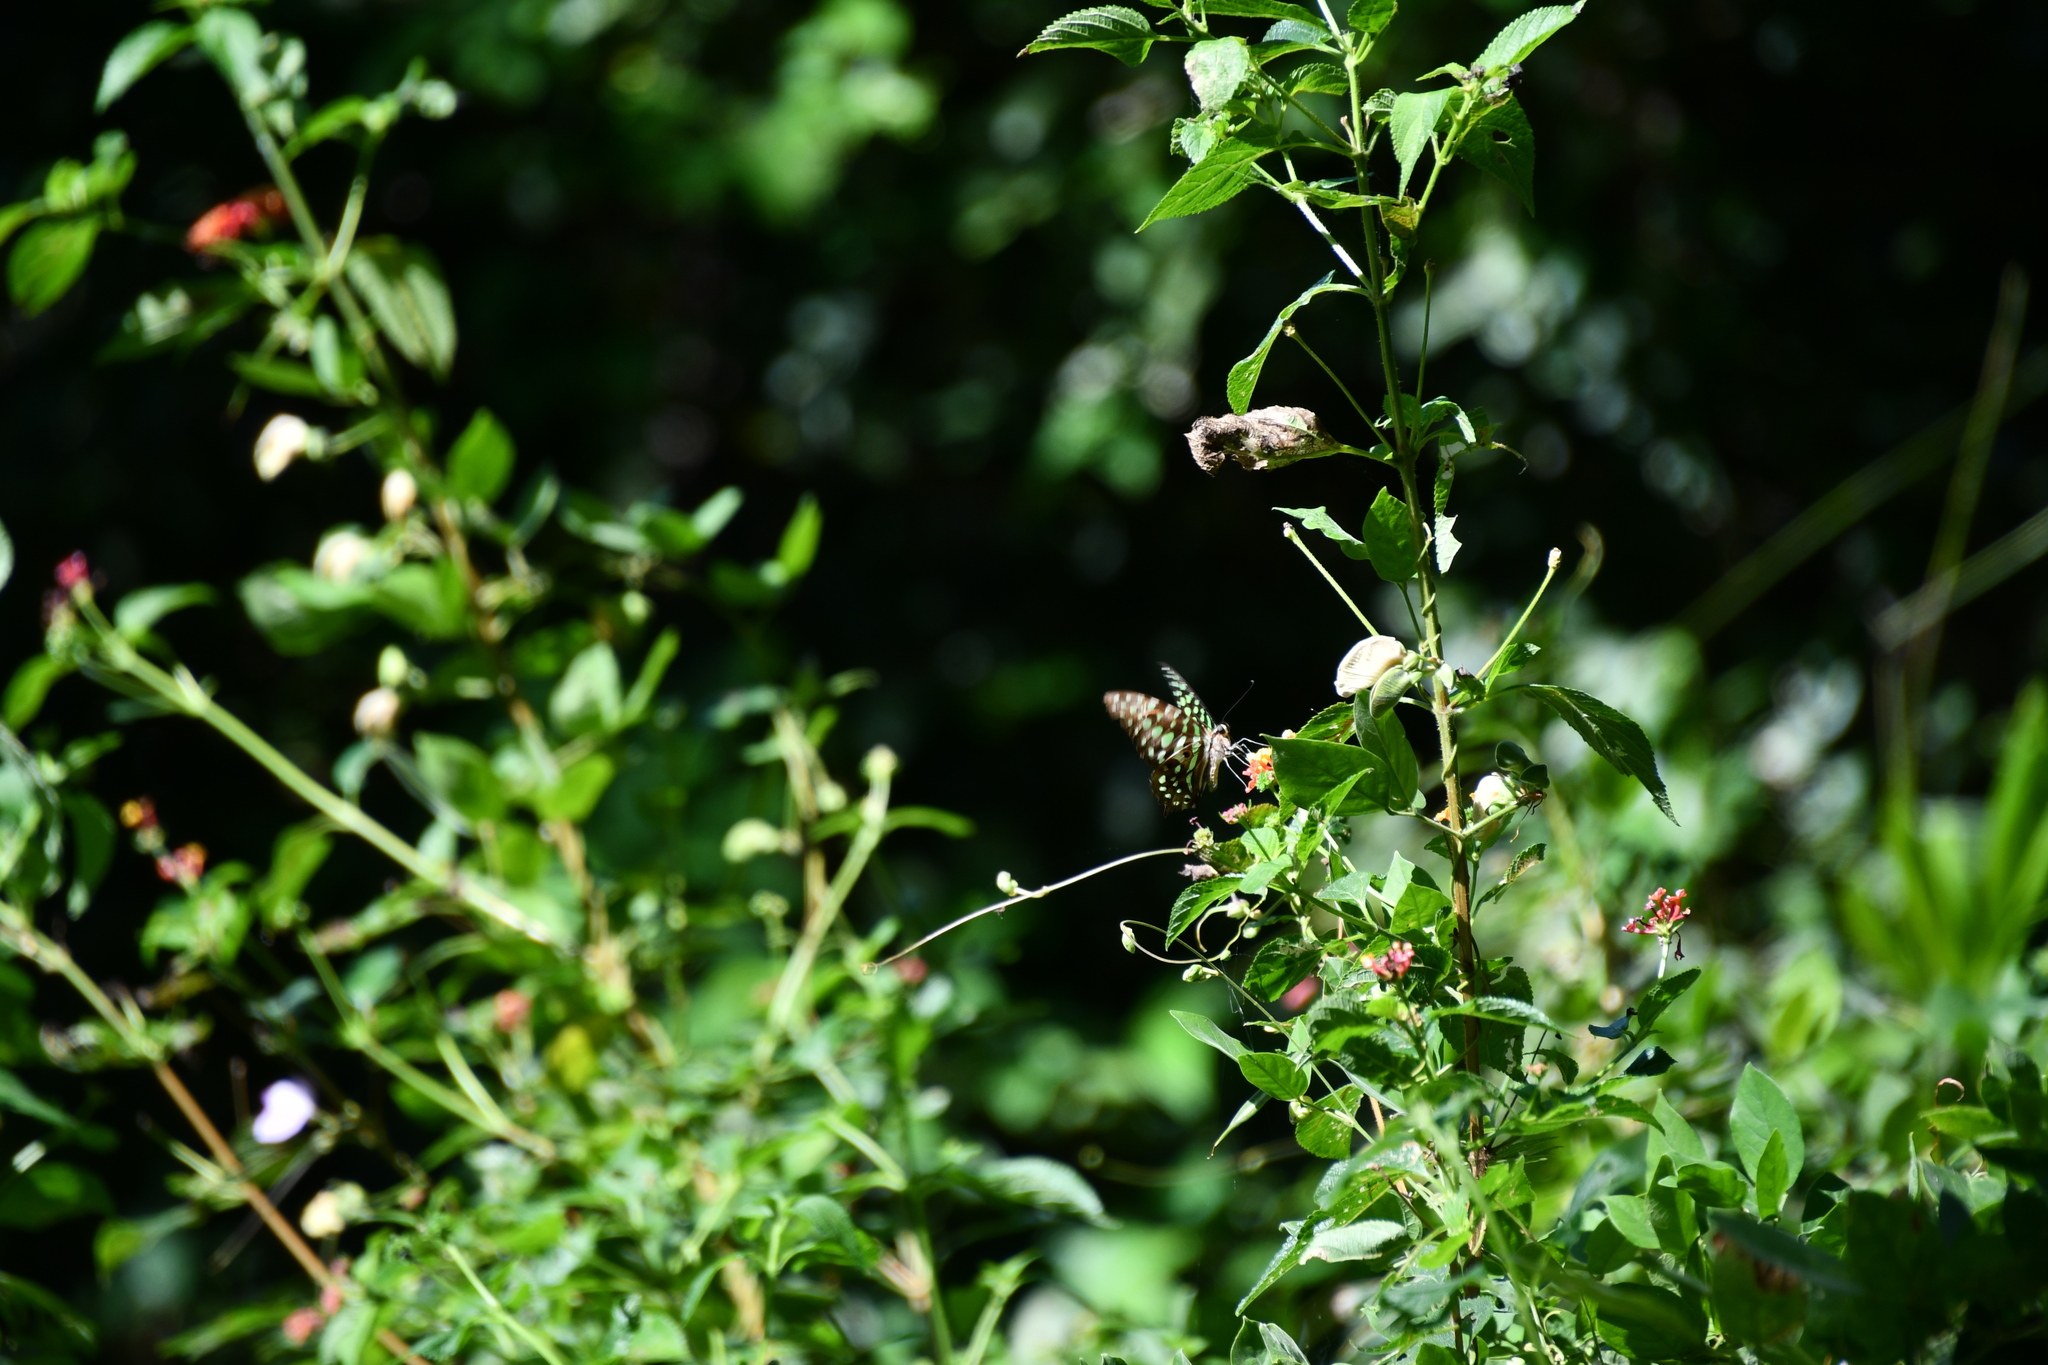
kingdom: Animalia
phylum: Arthropoda
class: Insecta
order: Lepidoptera
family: Papilionidae
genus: Graphium
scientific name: Graphium agamemnon
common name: Tailed jay
